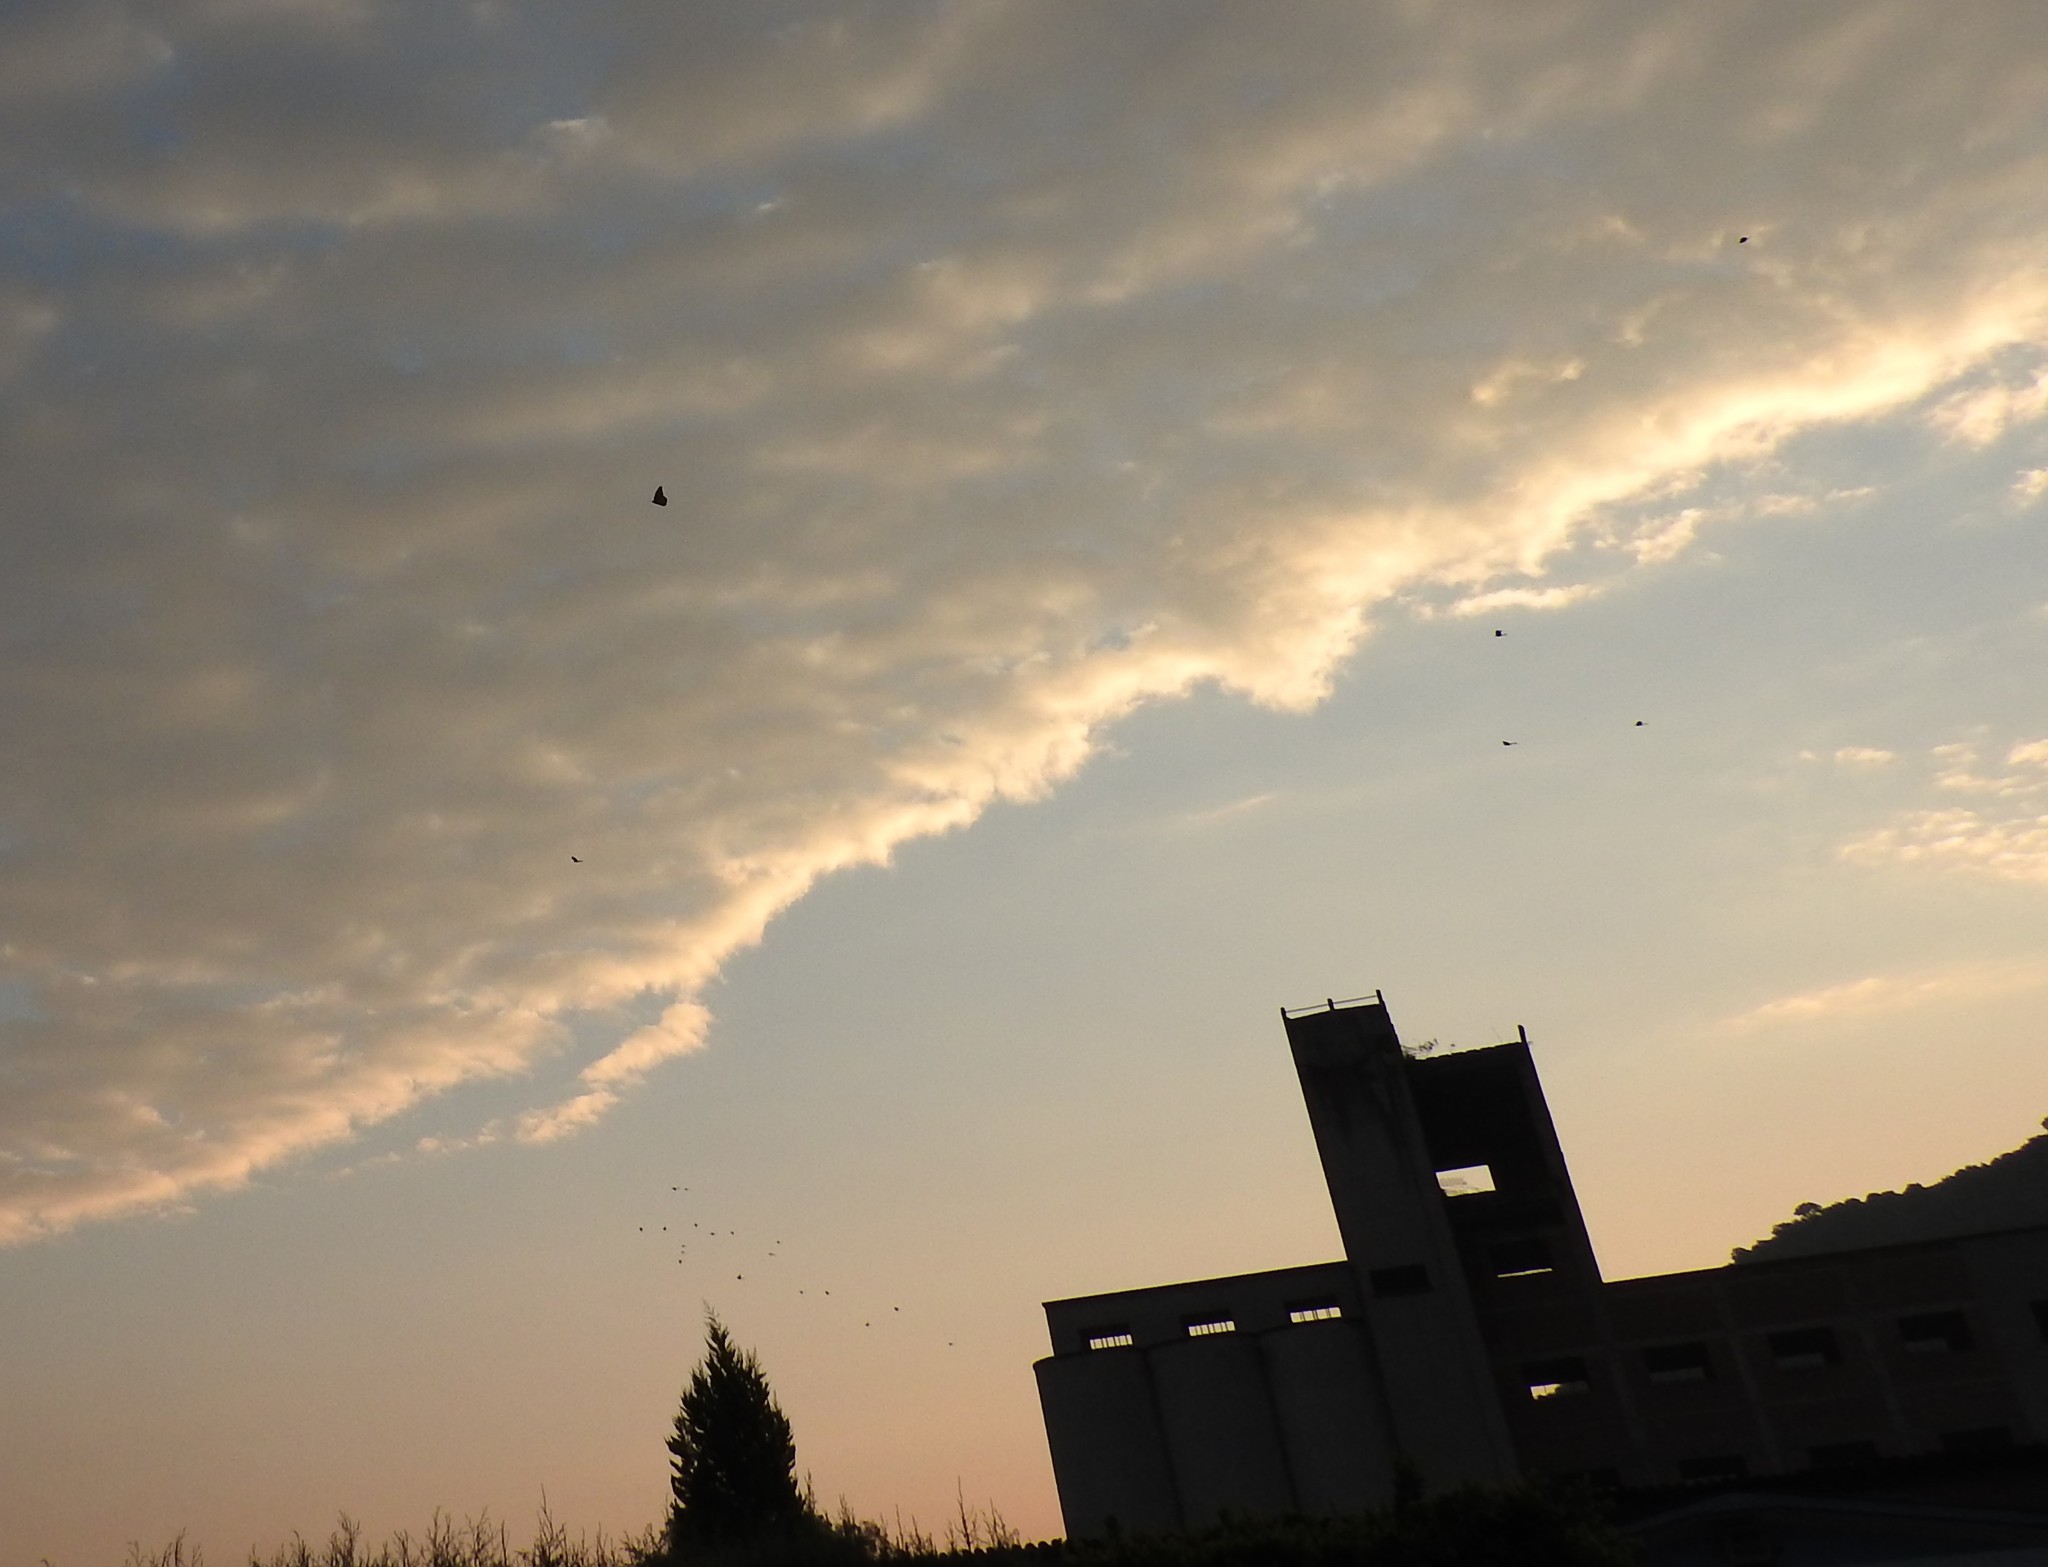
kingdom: Animalia
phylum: Arthropoda
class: Insecta
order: Lepidoptera
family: Nymphalidae
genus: Danaus
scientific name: Danaus plexippus
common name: Monarch
